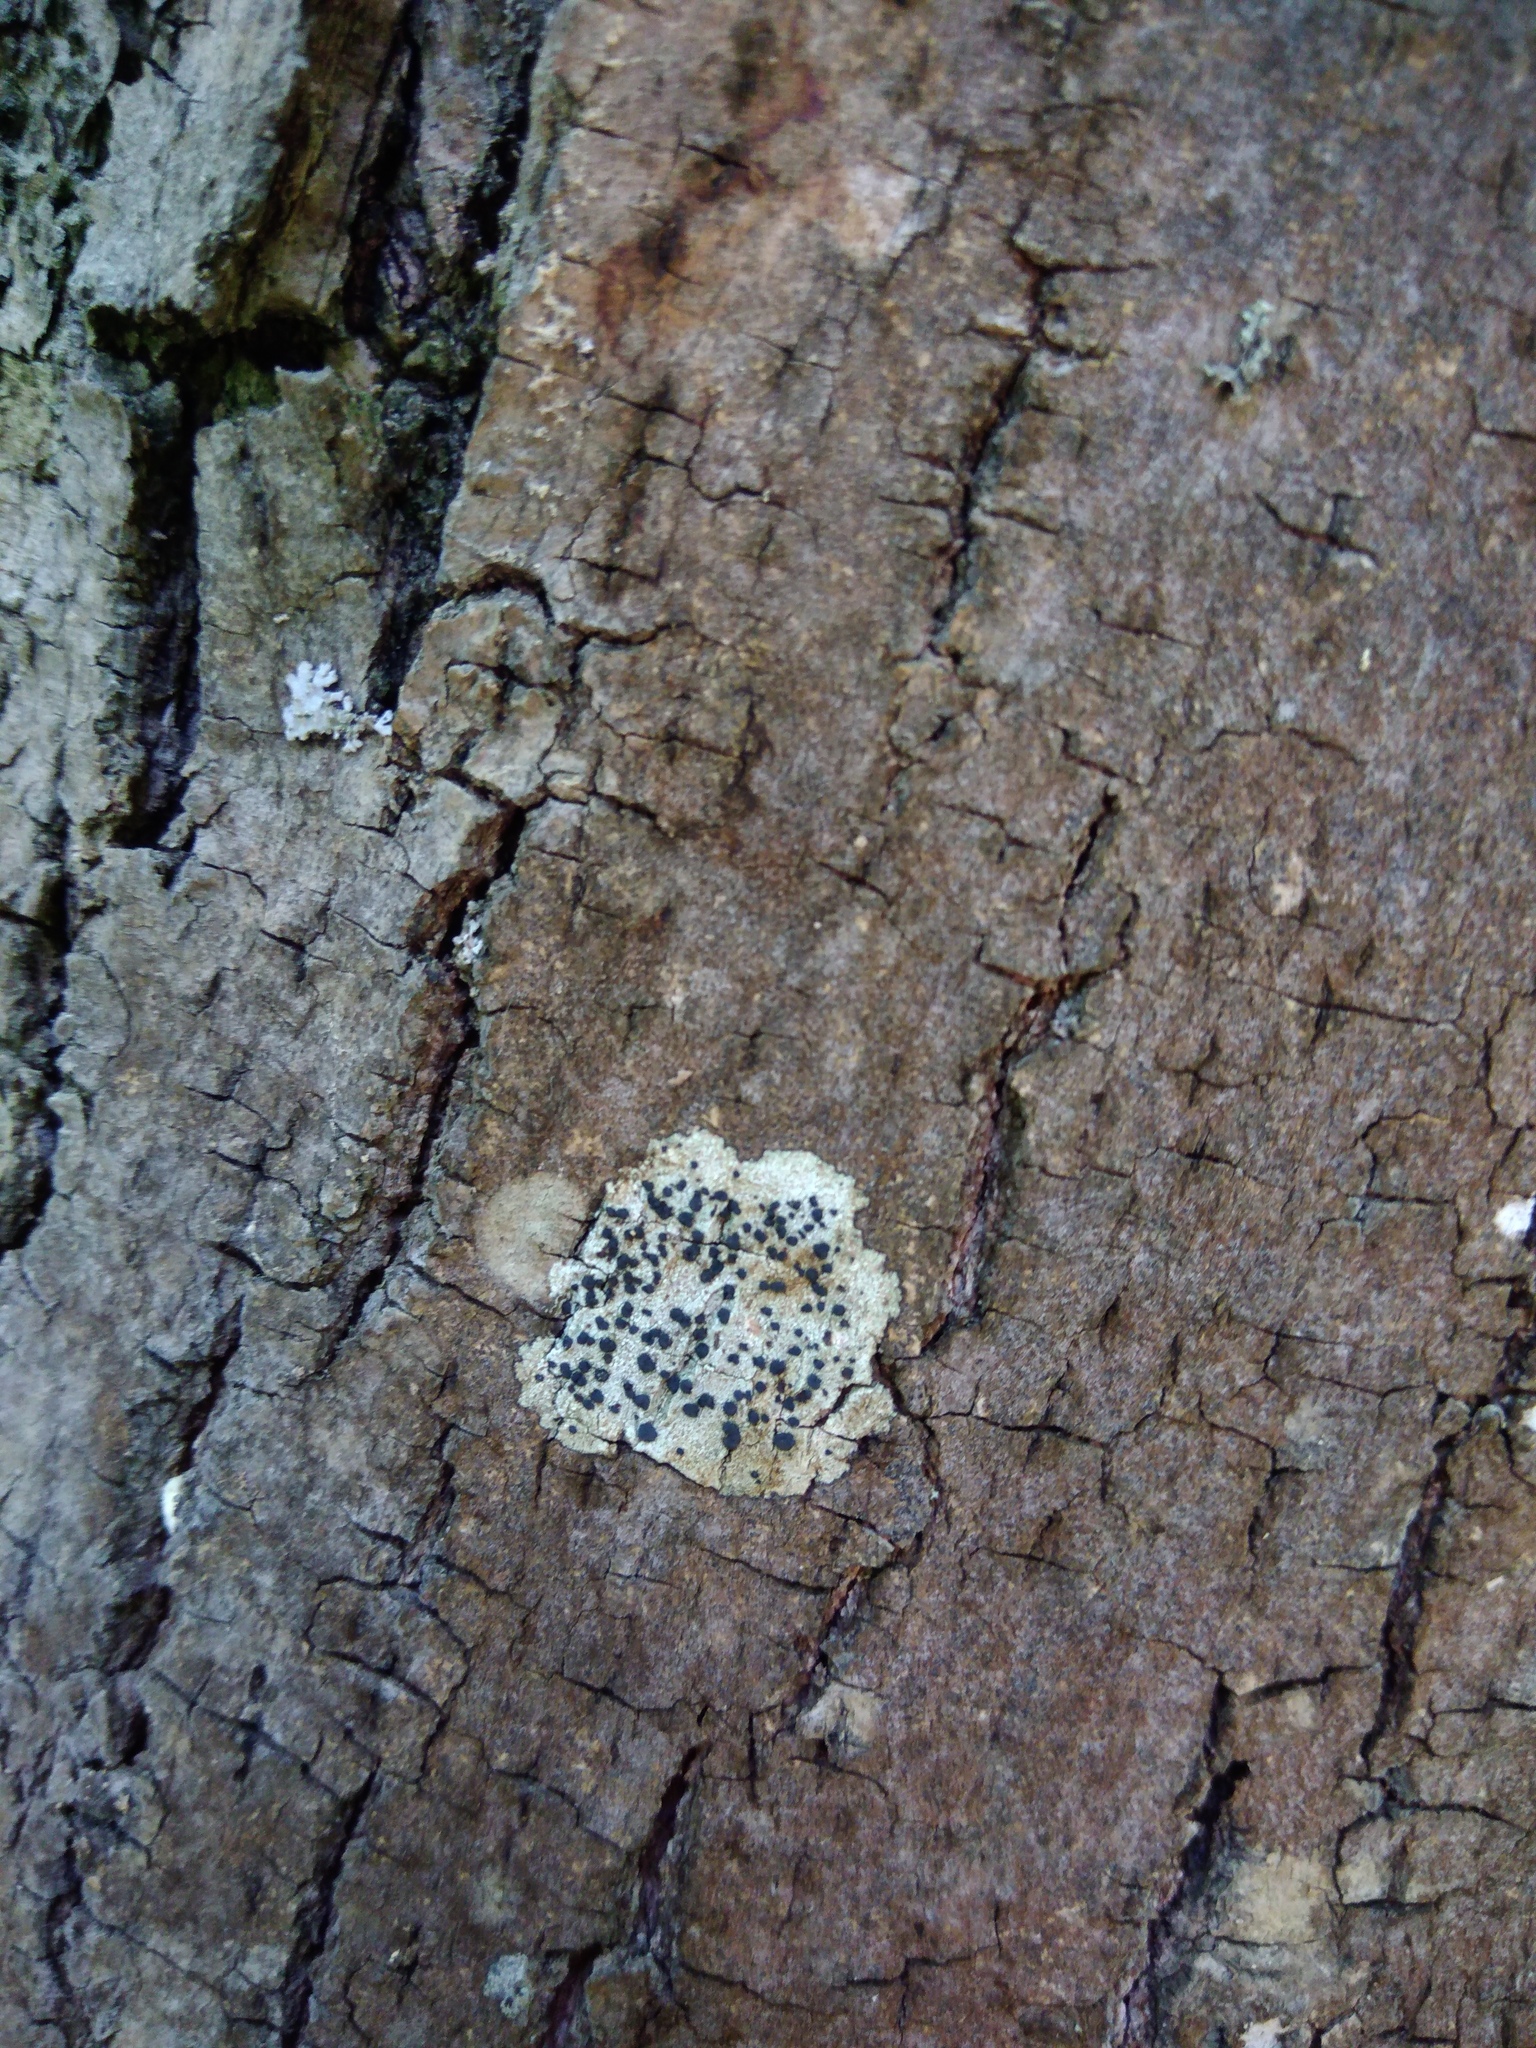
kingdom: Fungi
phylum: Ascomycota
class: Lecanoromycetes
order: Lecanorales
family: Lecanoraceae
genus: Lecidella
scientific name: Lecidella elaeochroma
